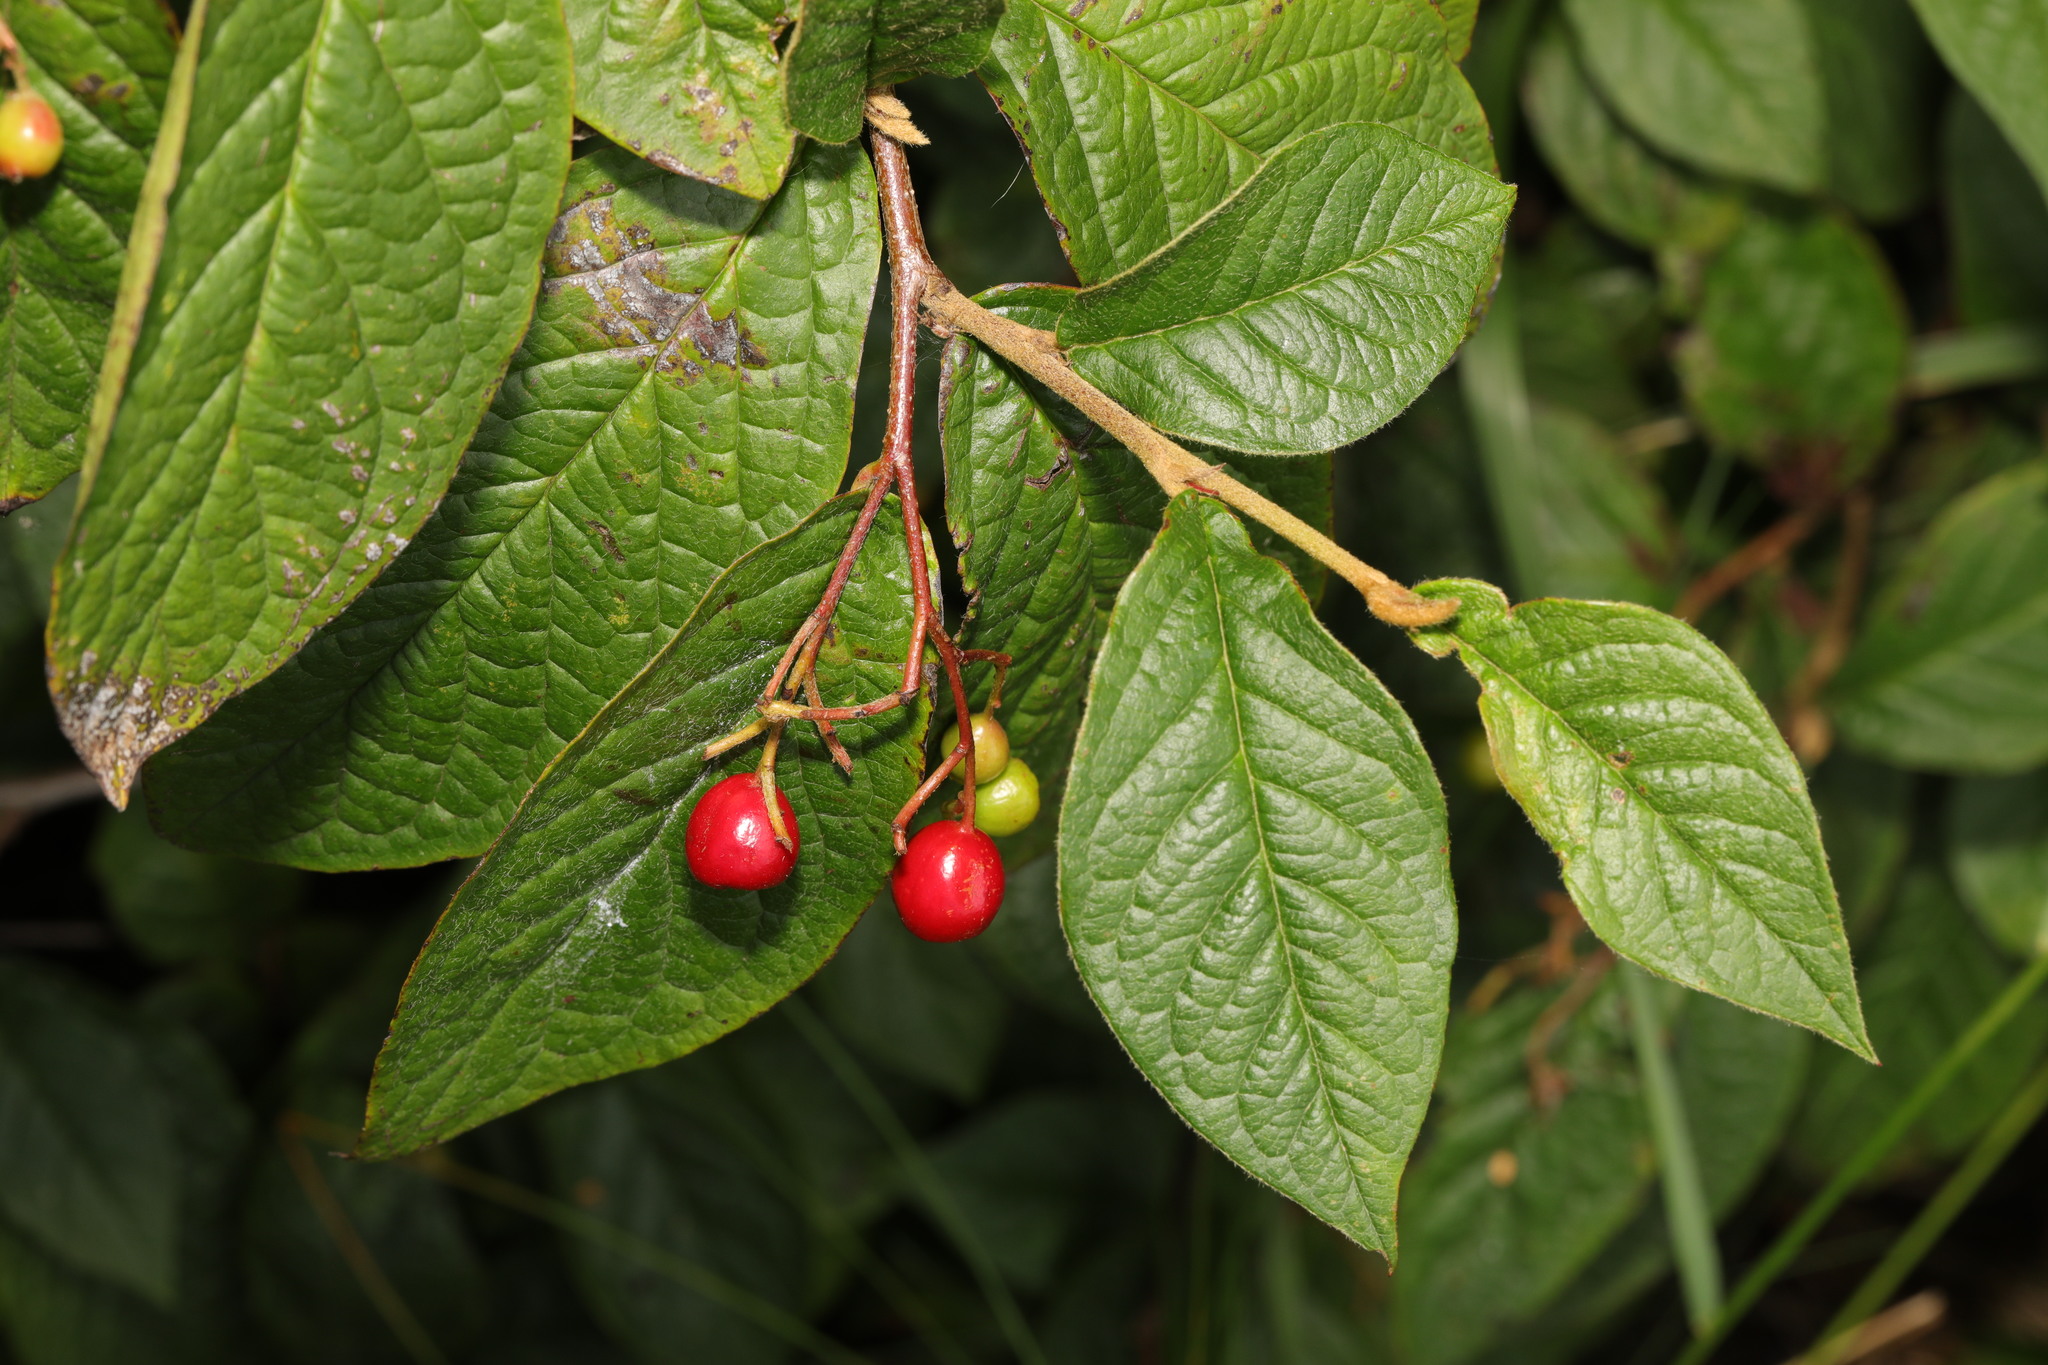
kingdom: Plantae
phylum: Tracheophyta
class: Magnoliopsida
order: Rosales
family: Rosaceae
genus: Cotoneaster
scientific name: Cotoneaster bullatus
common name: Hollyberry cotoneaster
